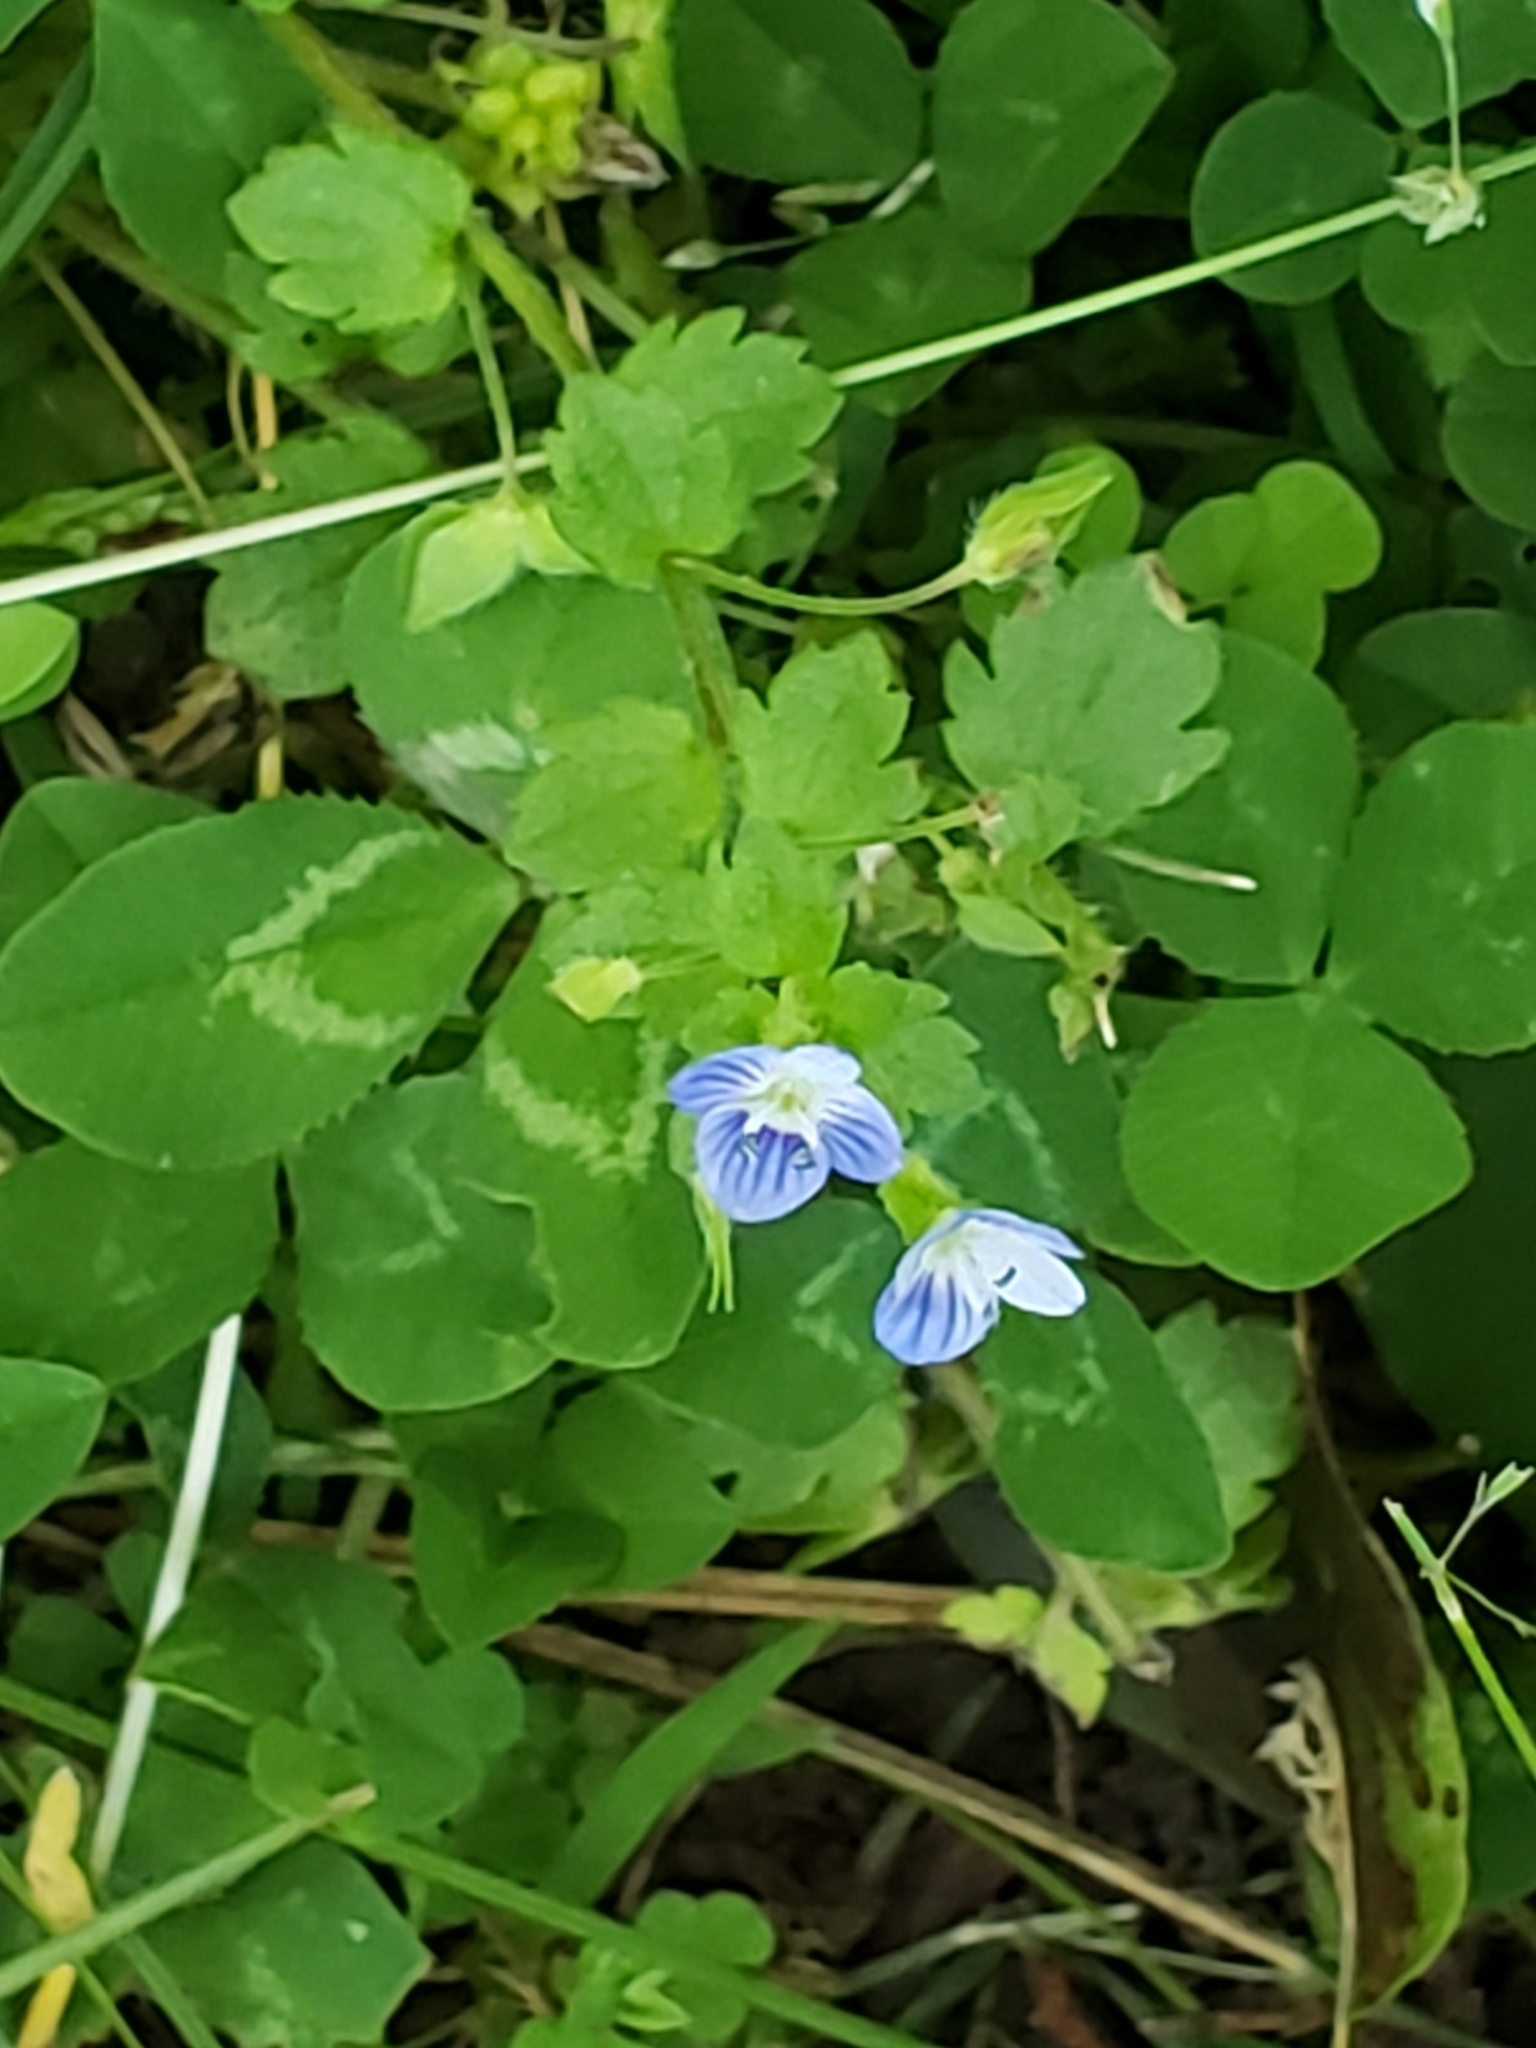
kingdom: Plantae
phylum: Tracheophyta
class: Magnoliopsida
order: Lamiales
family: Plantaginaceae
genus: Veronica
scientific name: Veronica persica
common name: Common field-speedwell
